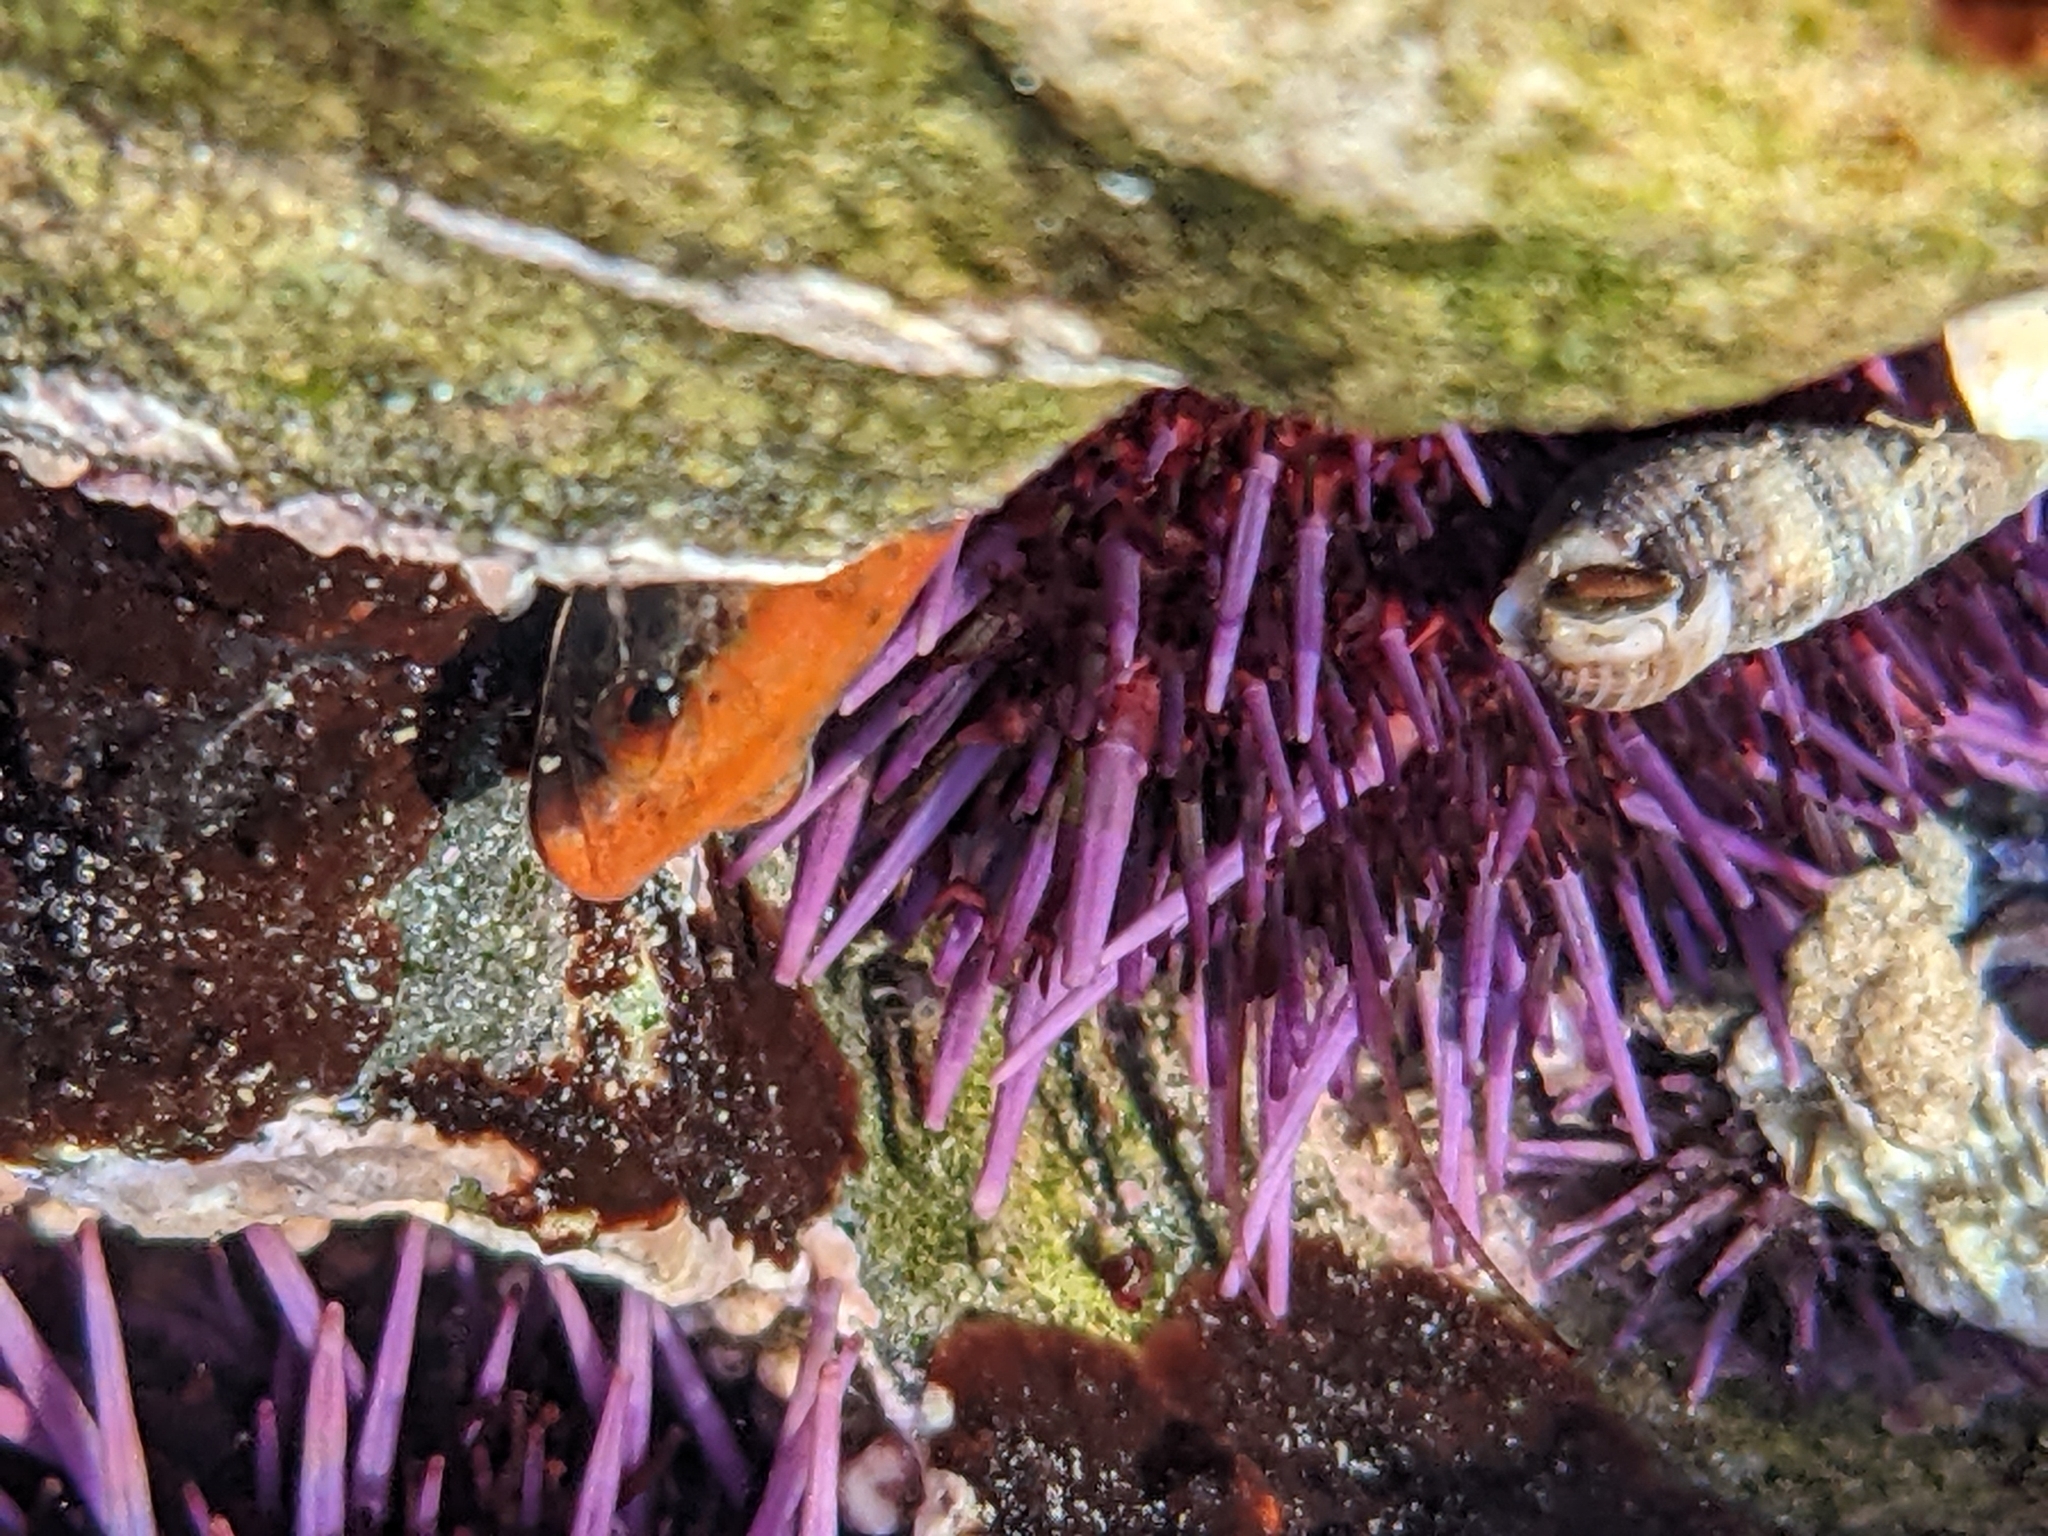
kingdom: Animalia
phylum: Chordata
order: Perciformes
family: Stichaeidae
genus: Anoplarchus
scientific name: Anoplarchus purpurescens
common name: High cockscomb
